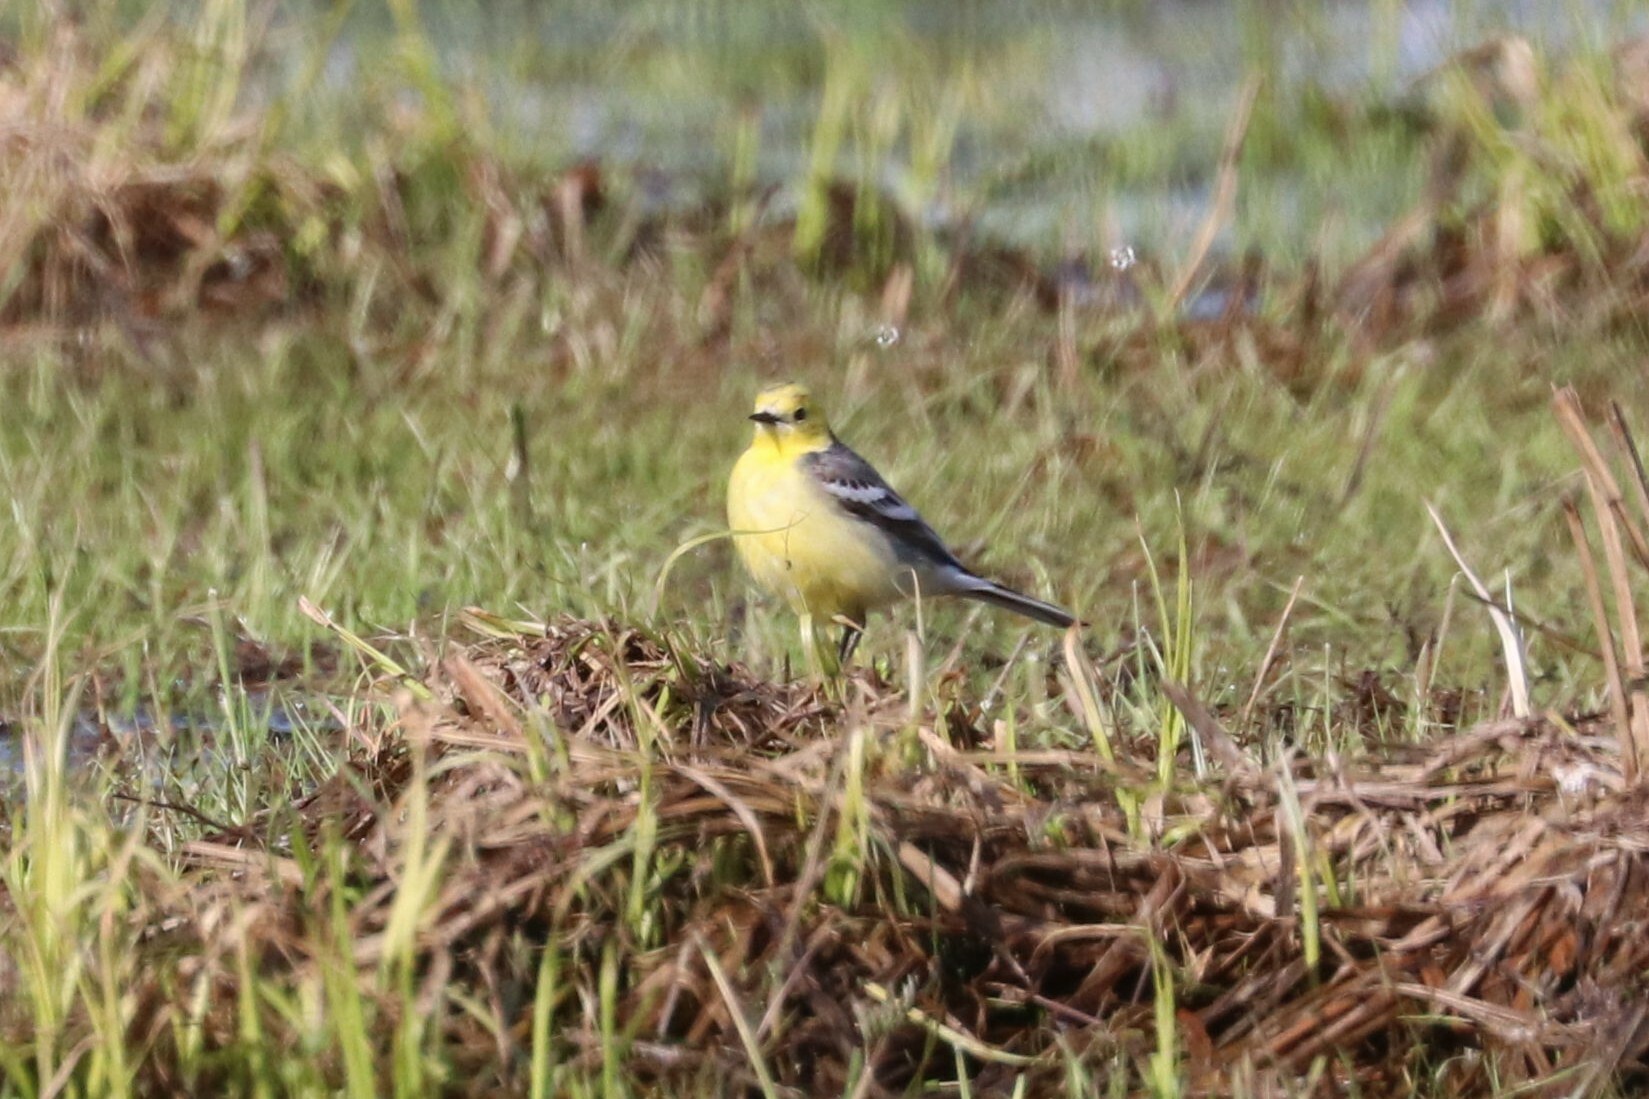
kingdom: Animalia
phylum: Chordata
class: Aves
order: Passeriformes
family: Motacillidae
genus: Motacilla
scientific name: Motacilla citreola
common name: Citrine wagtail
